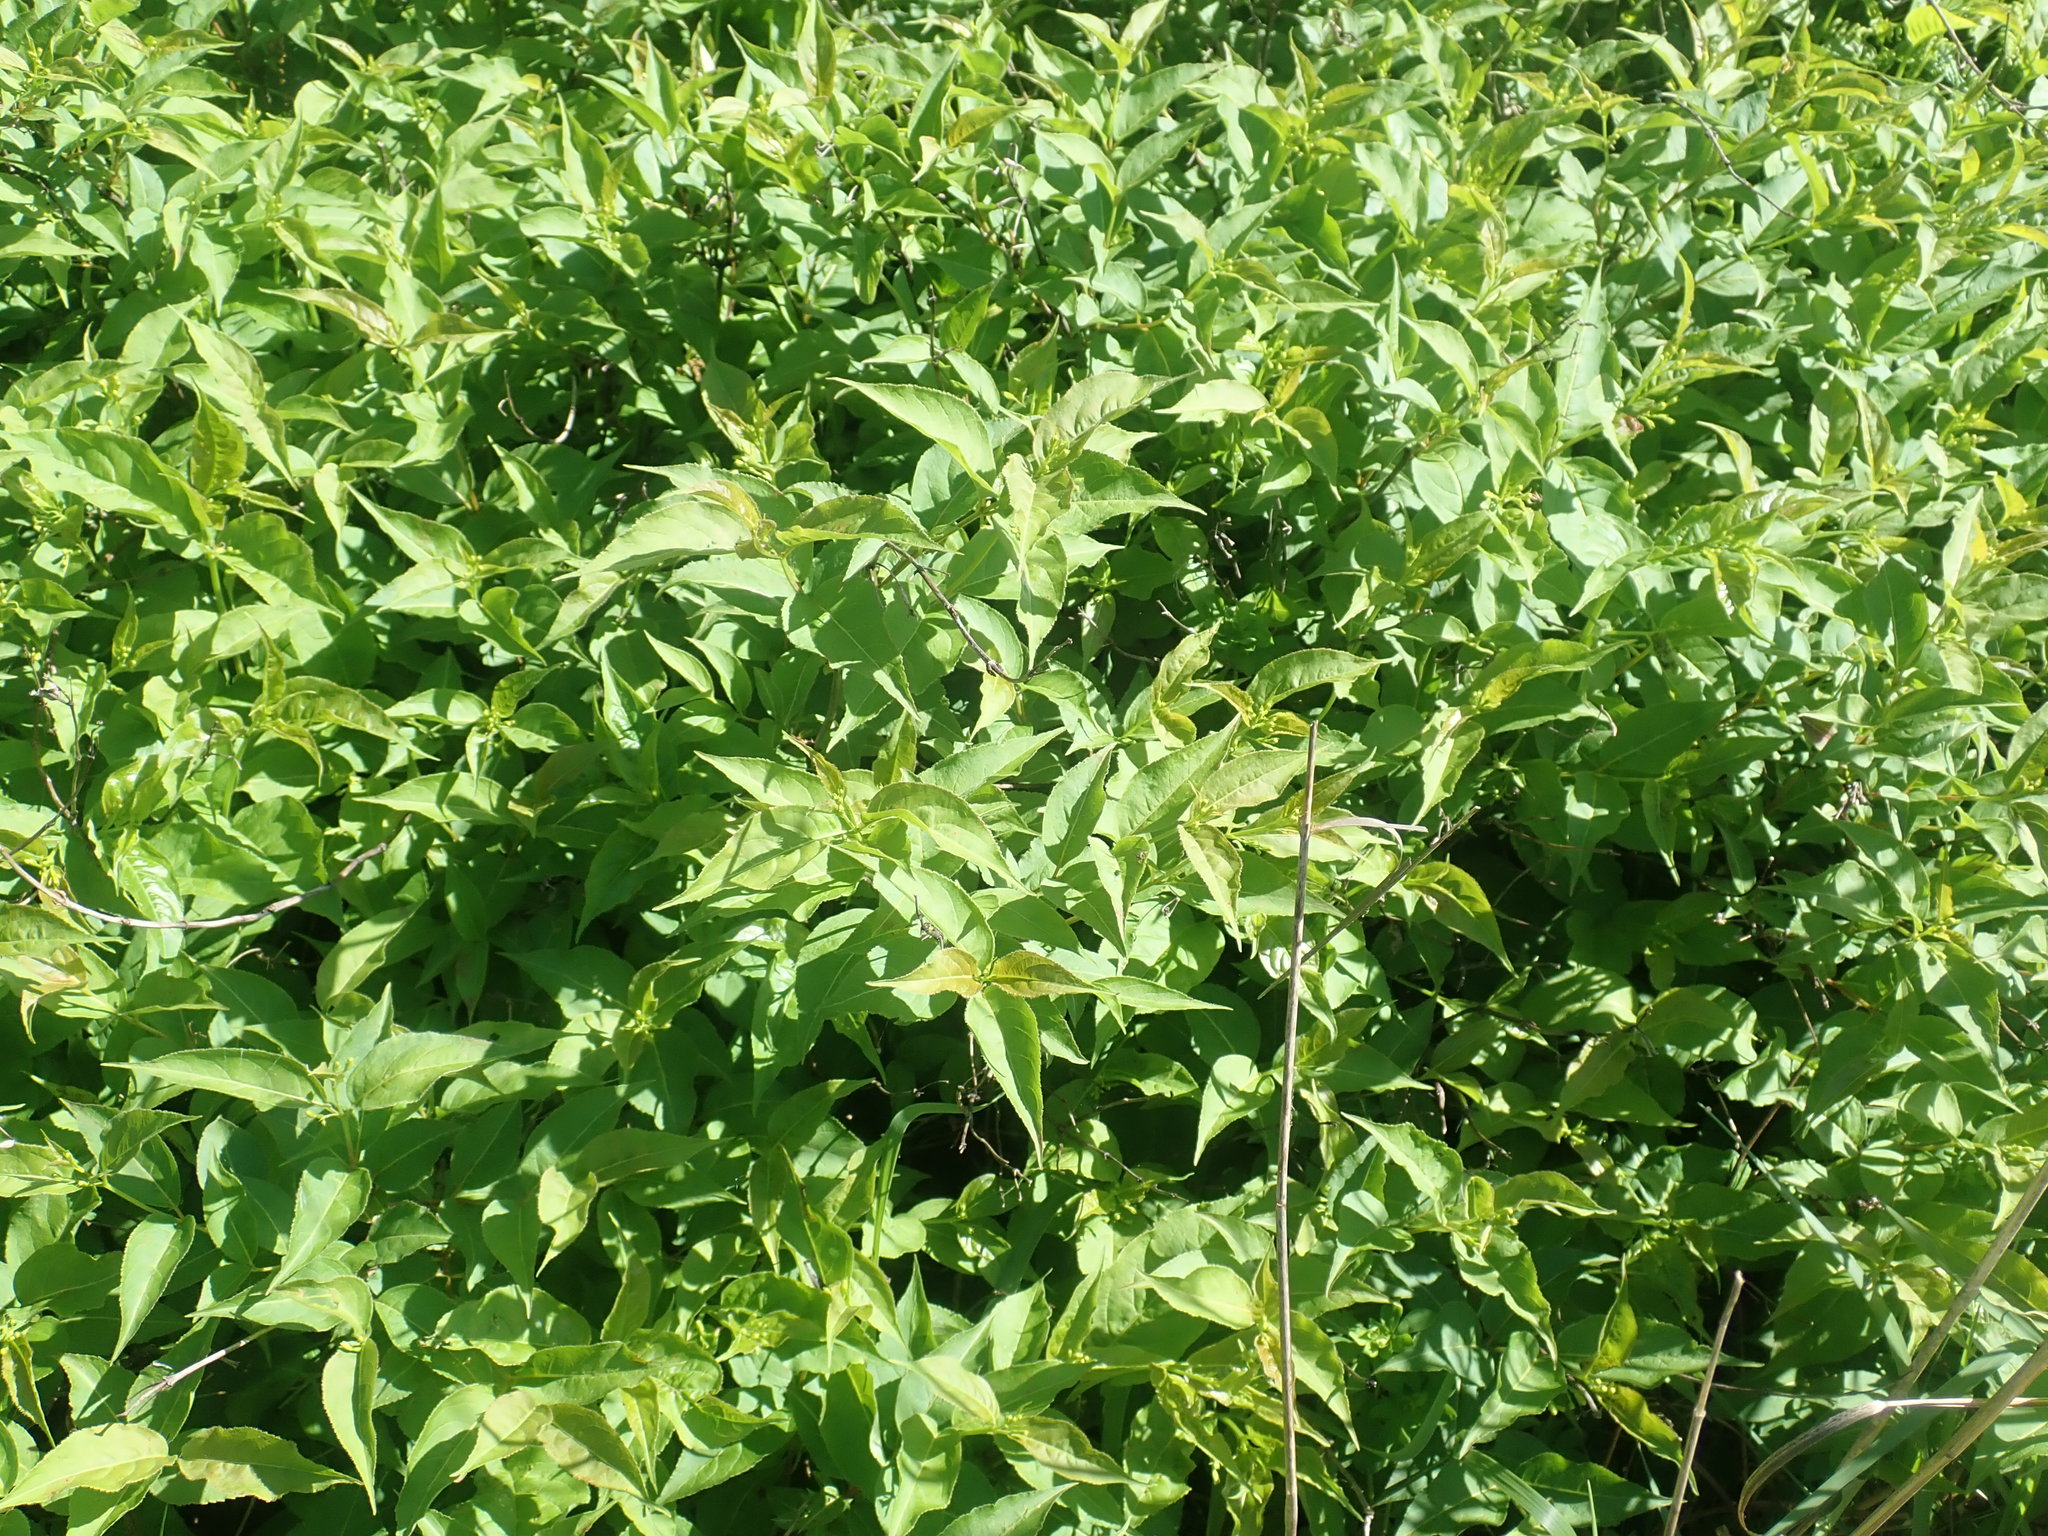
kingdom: Plantae
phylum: Tracheophyta
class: Magnoliopsida
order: Dipsacales
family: Caprifoliaceae
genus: Diervilla
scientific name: Diervilla lonicera
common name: Bush-honeysuckle
